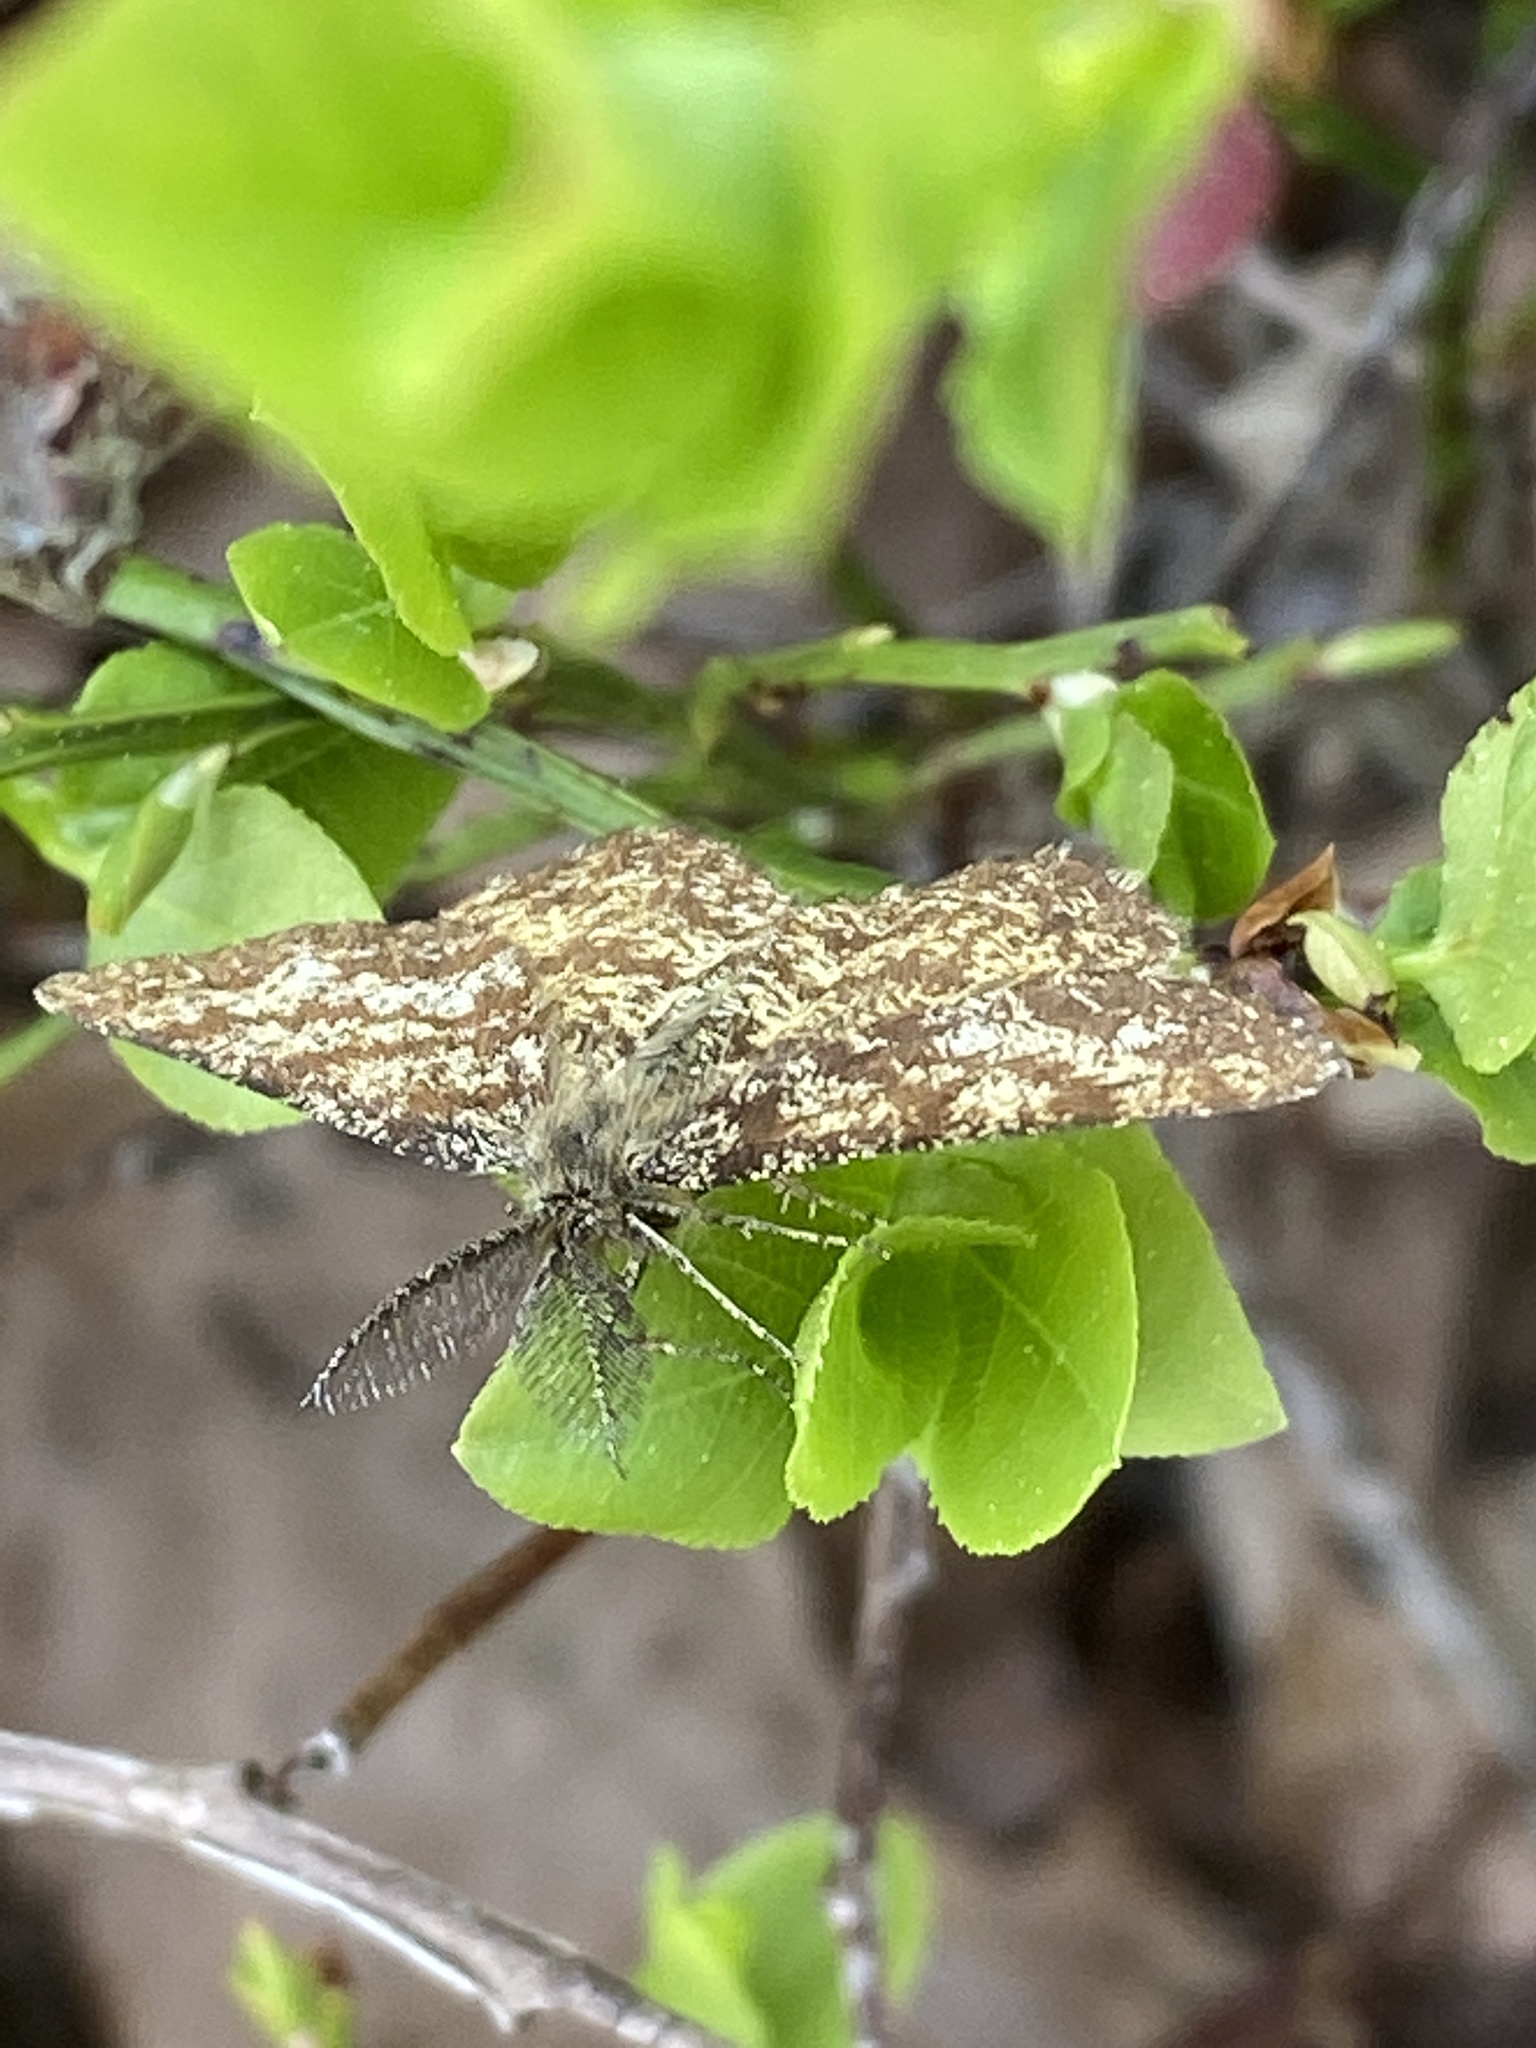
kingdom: Animalia
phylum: Arthropoda
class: Insecta
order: Lepidoptera
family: Geometridae
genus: Ematurga
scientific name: Ematurga atomaria
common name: Common heath
